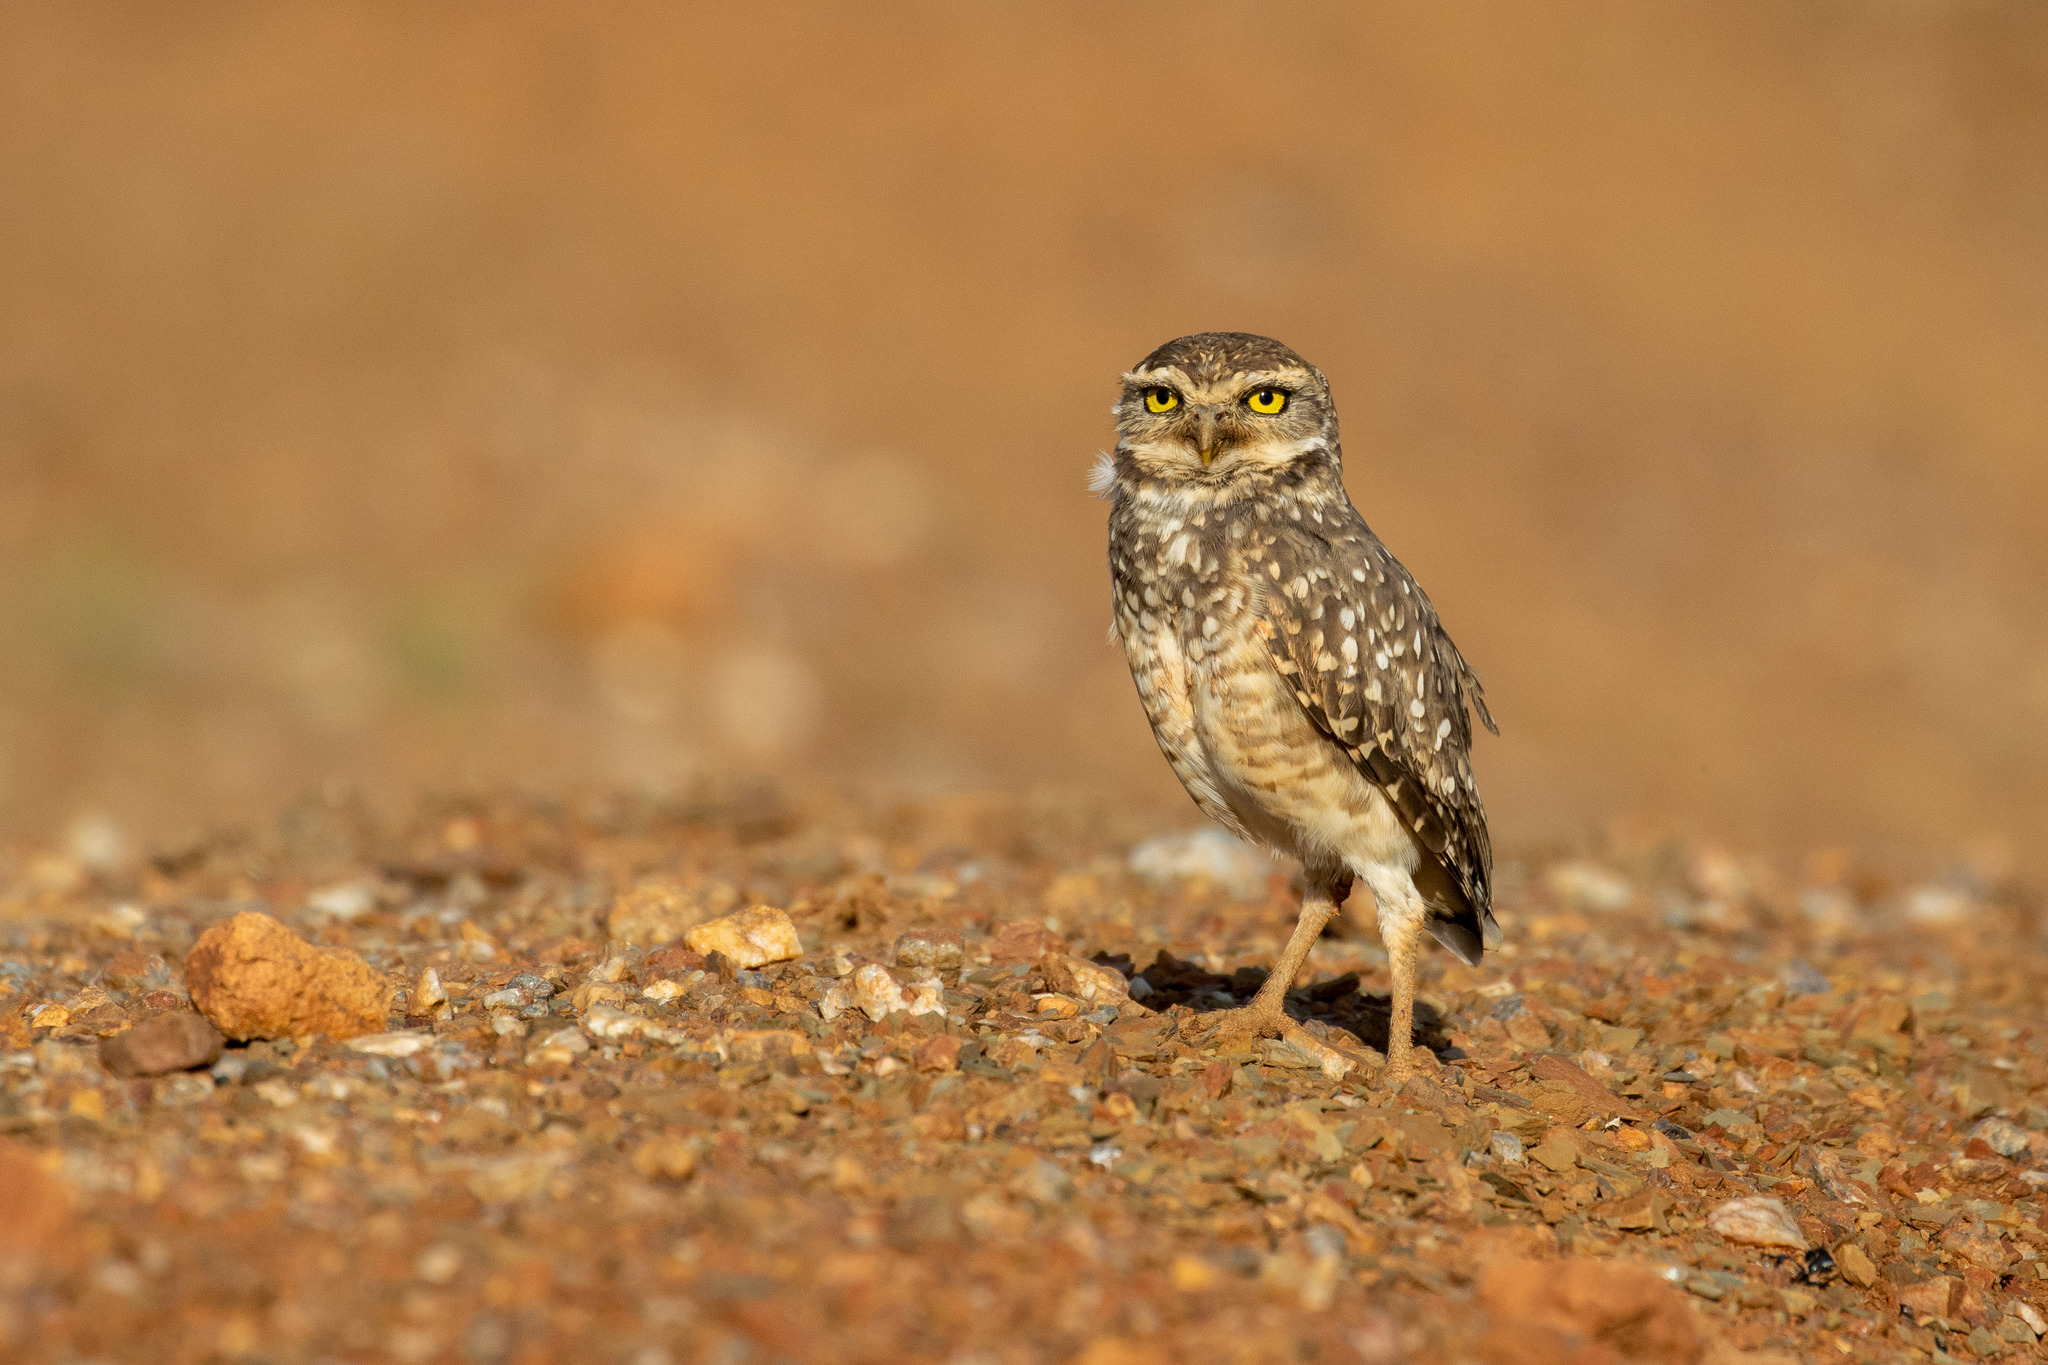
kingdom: Animalia
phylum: Chordata
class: Aves
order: Strigiformes
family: Strigidae
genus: Athene
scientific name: Athene cunicularia
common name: Burrowing owl
